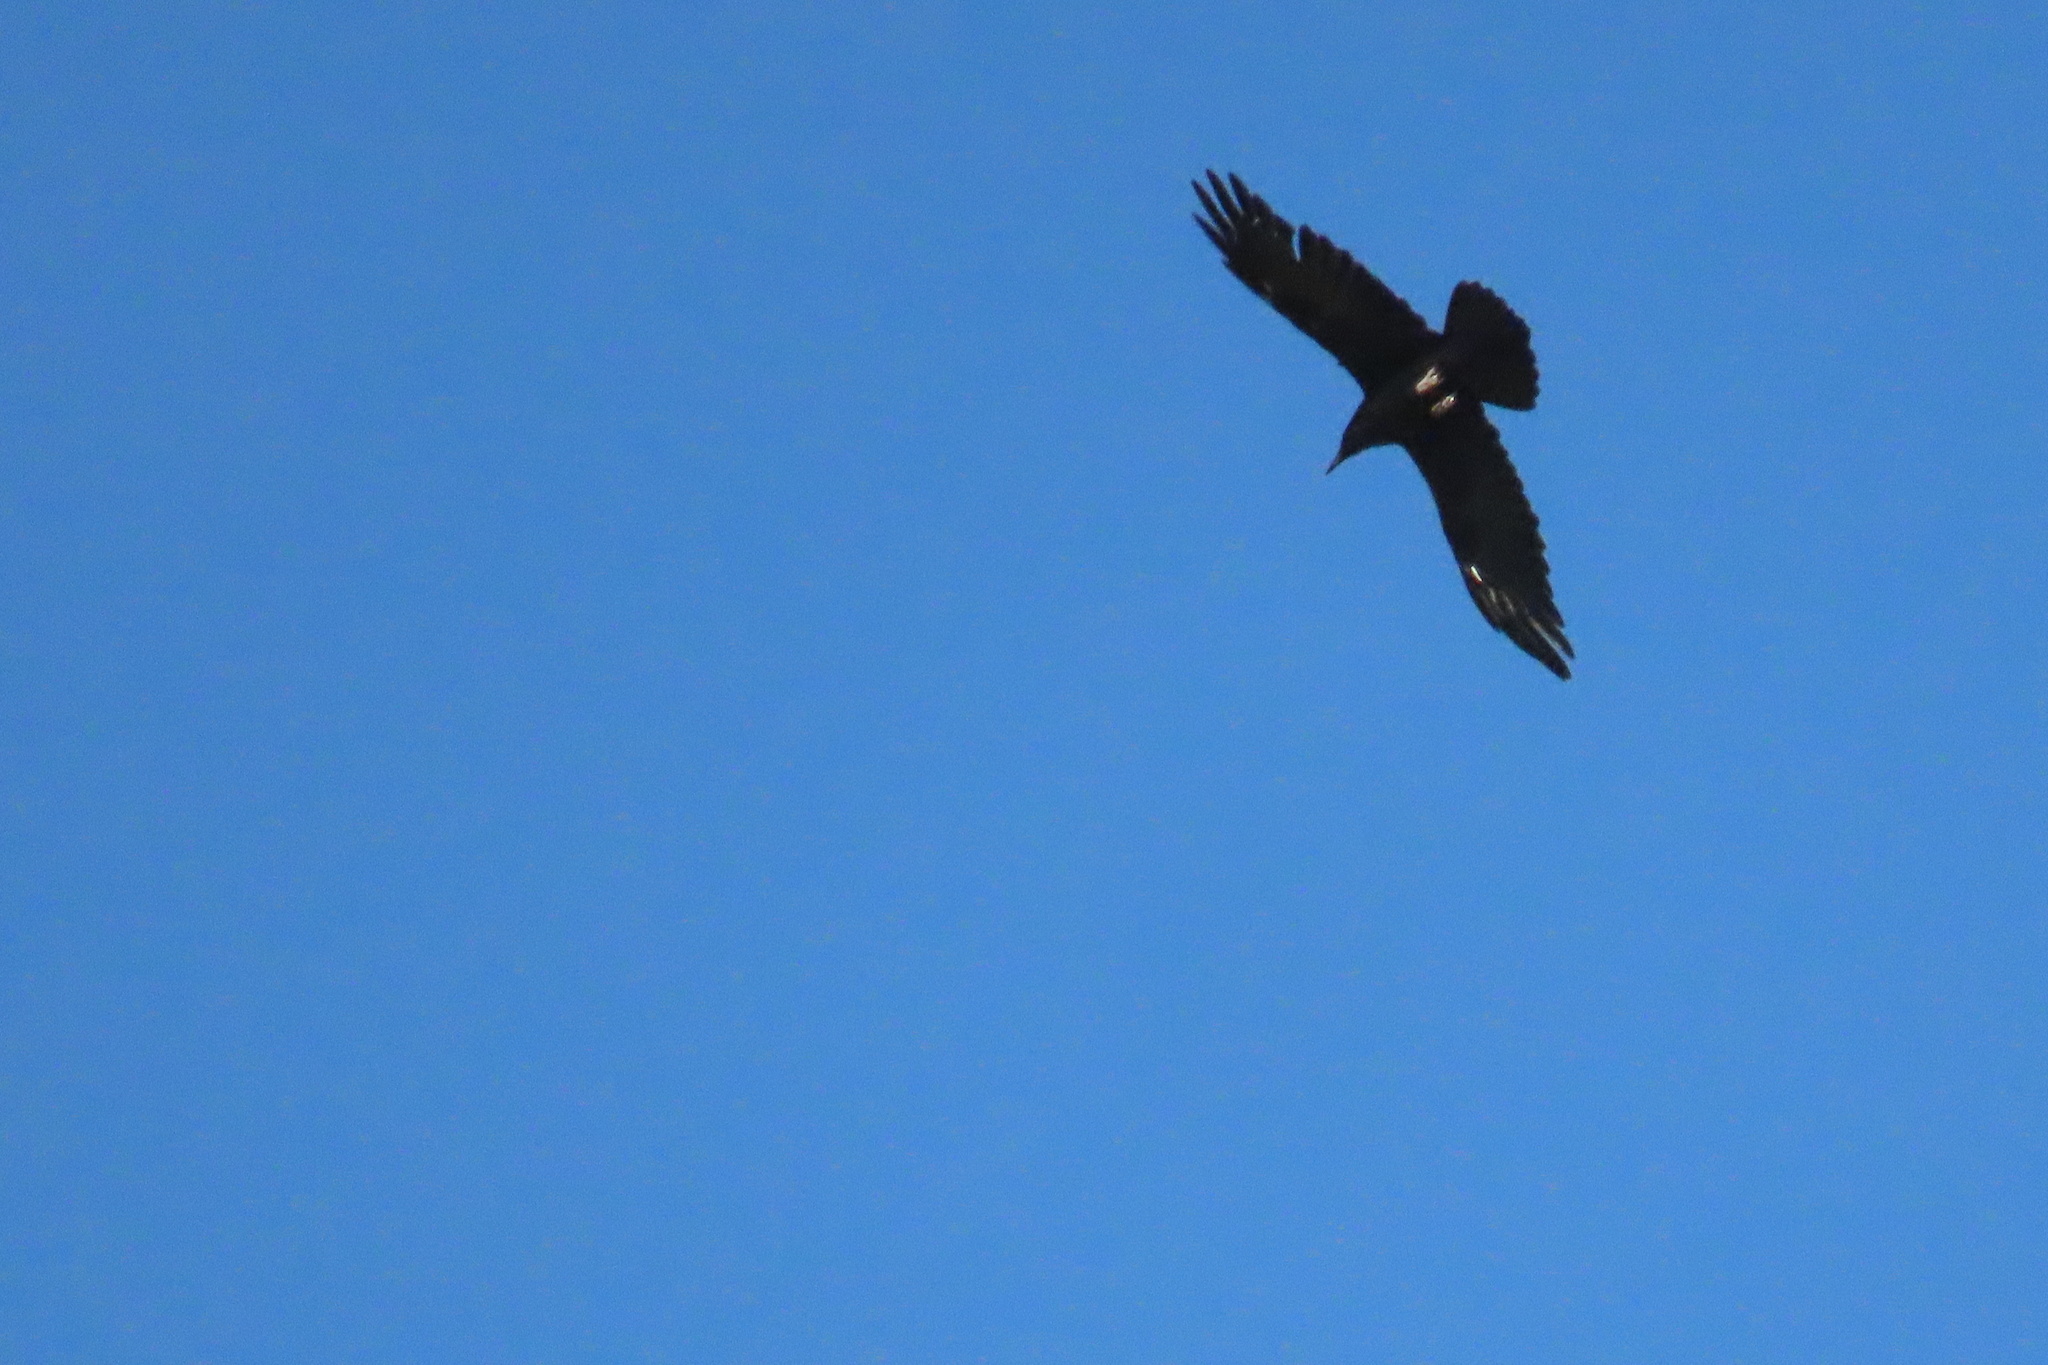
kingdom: Animalia
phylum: Chordata
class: Aves
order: Passeriformes
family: Corvidae
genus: Corvus
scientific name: Corvus corax
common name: Common raven
